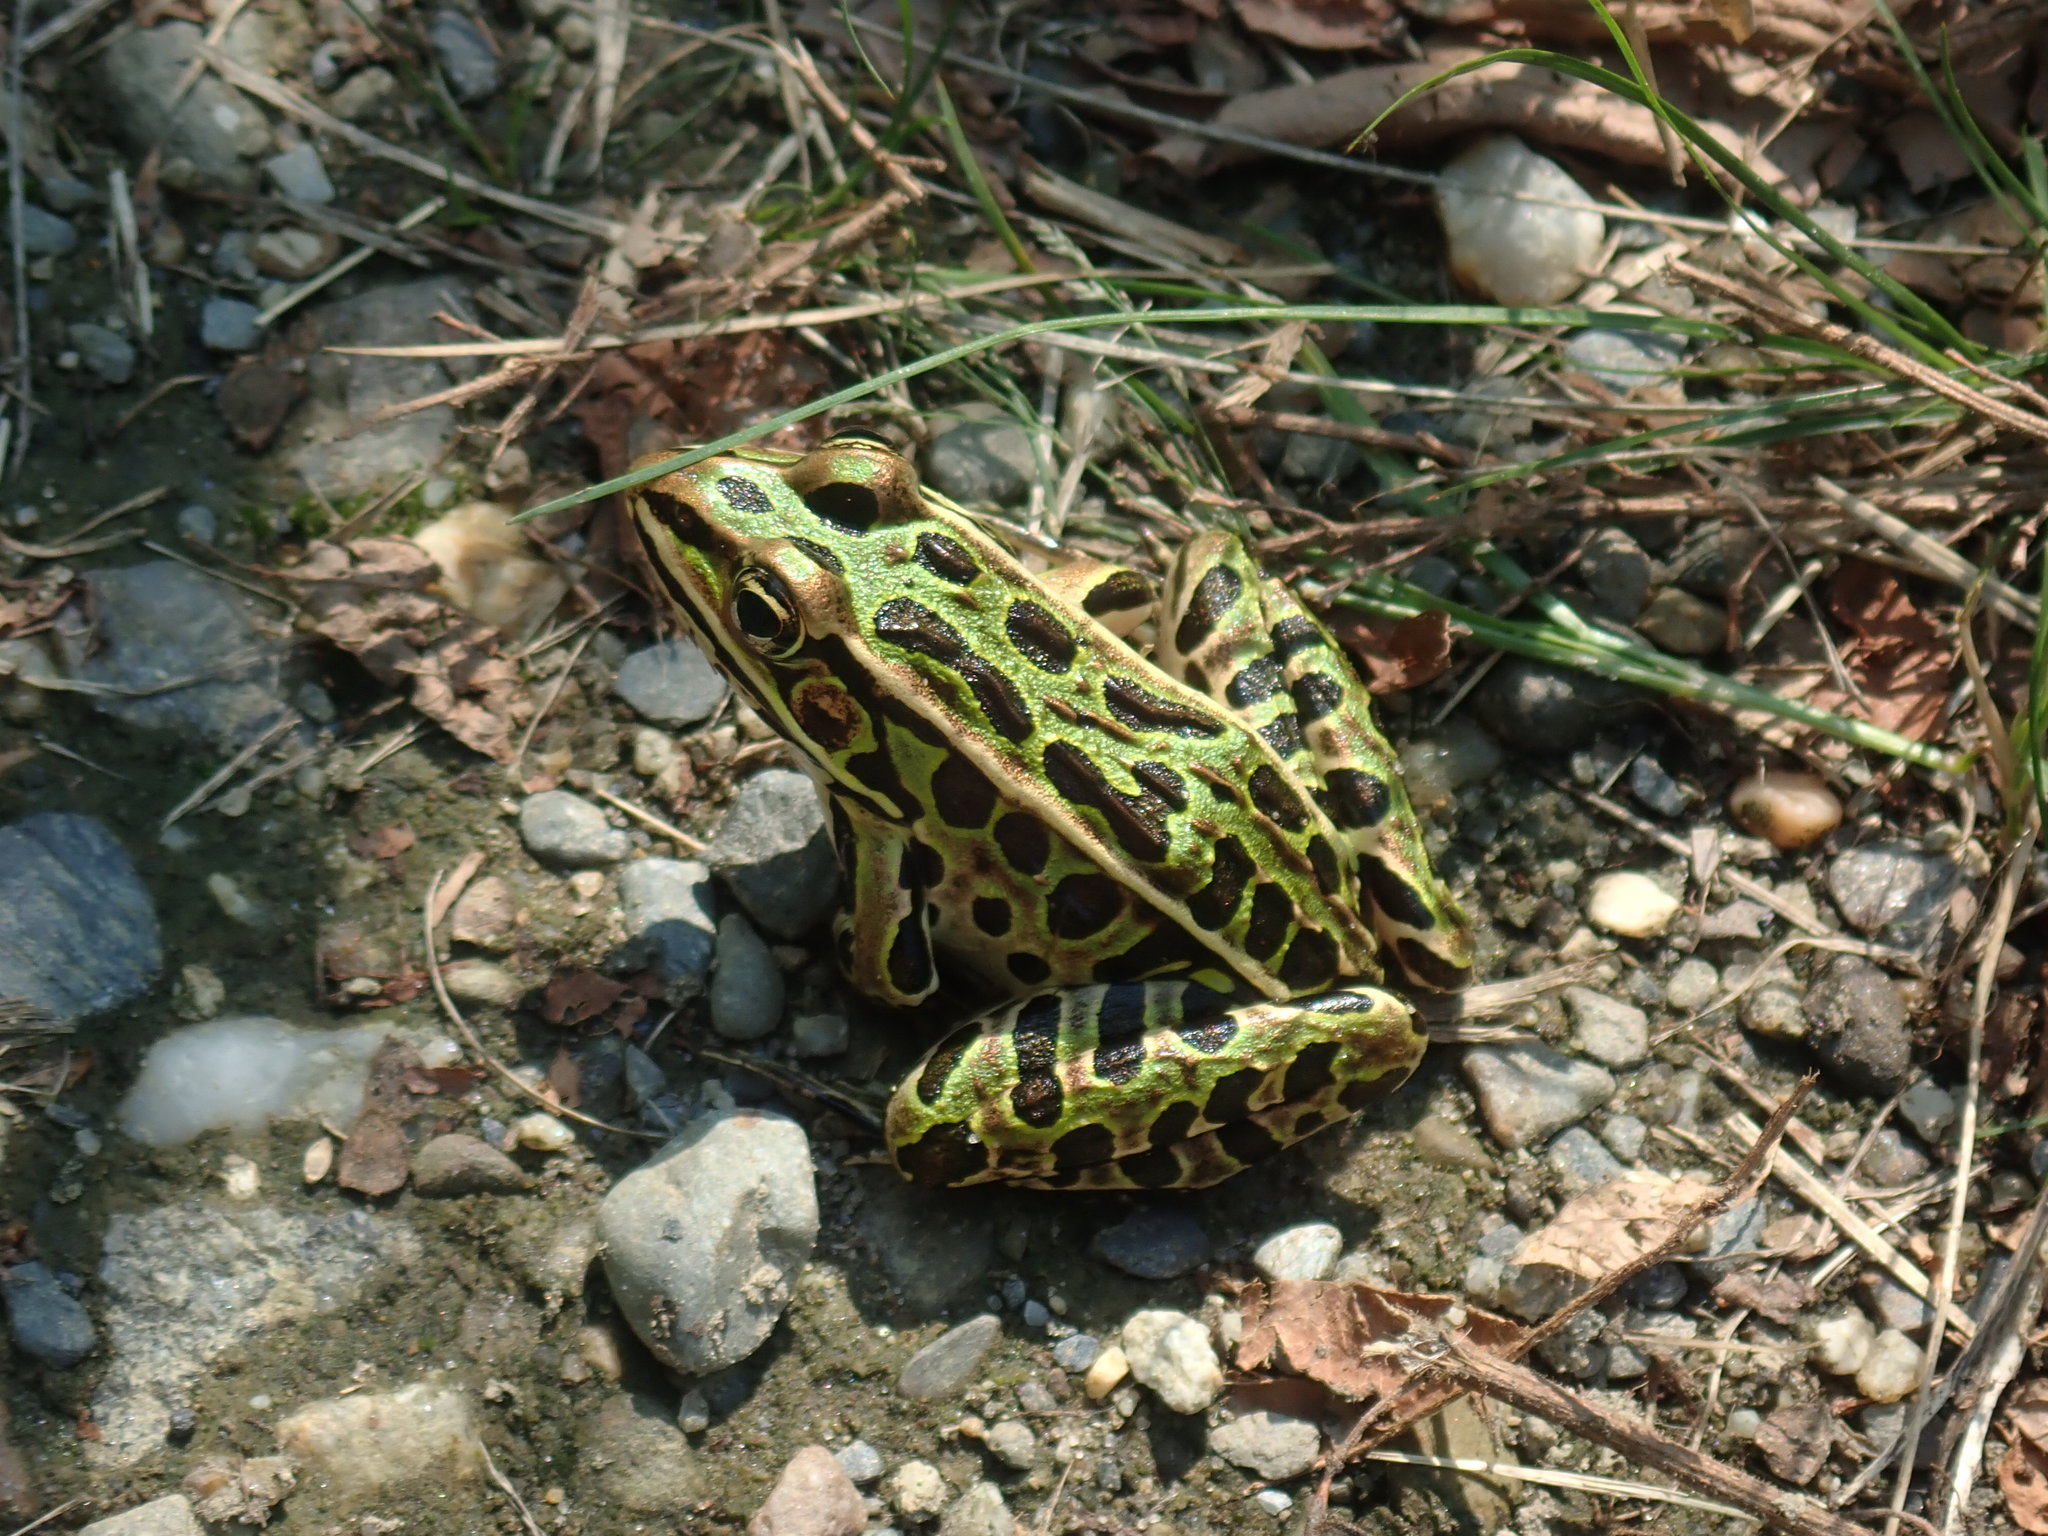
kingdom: Animalia
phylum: Chordata
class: Amphibia
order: Anura
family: Ranidae
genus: Lithobates
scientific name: Lithobates pipiens
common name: Northern leopard frog
